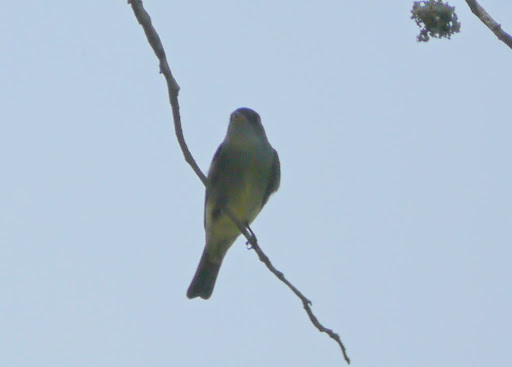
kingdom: Animalia
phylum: Chordata
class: Aves
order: Passeriformes
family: Tyrannidae
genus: Contopus
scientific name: Contopus virens
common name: Eastern wood-pewee
